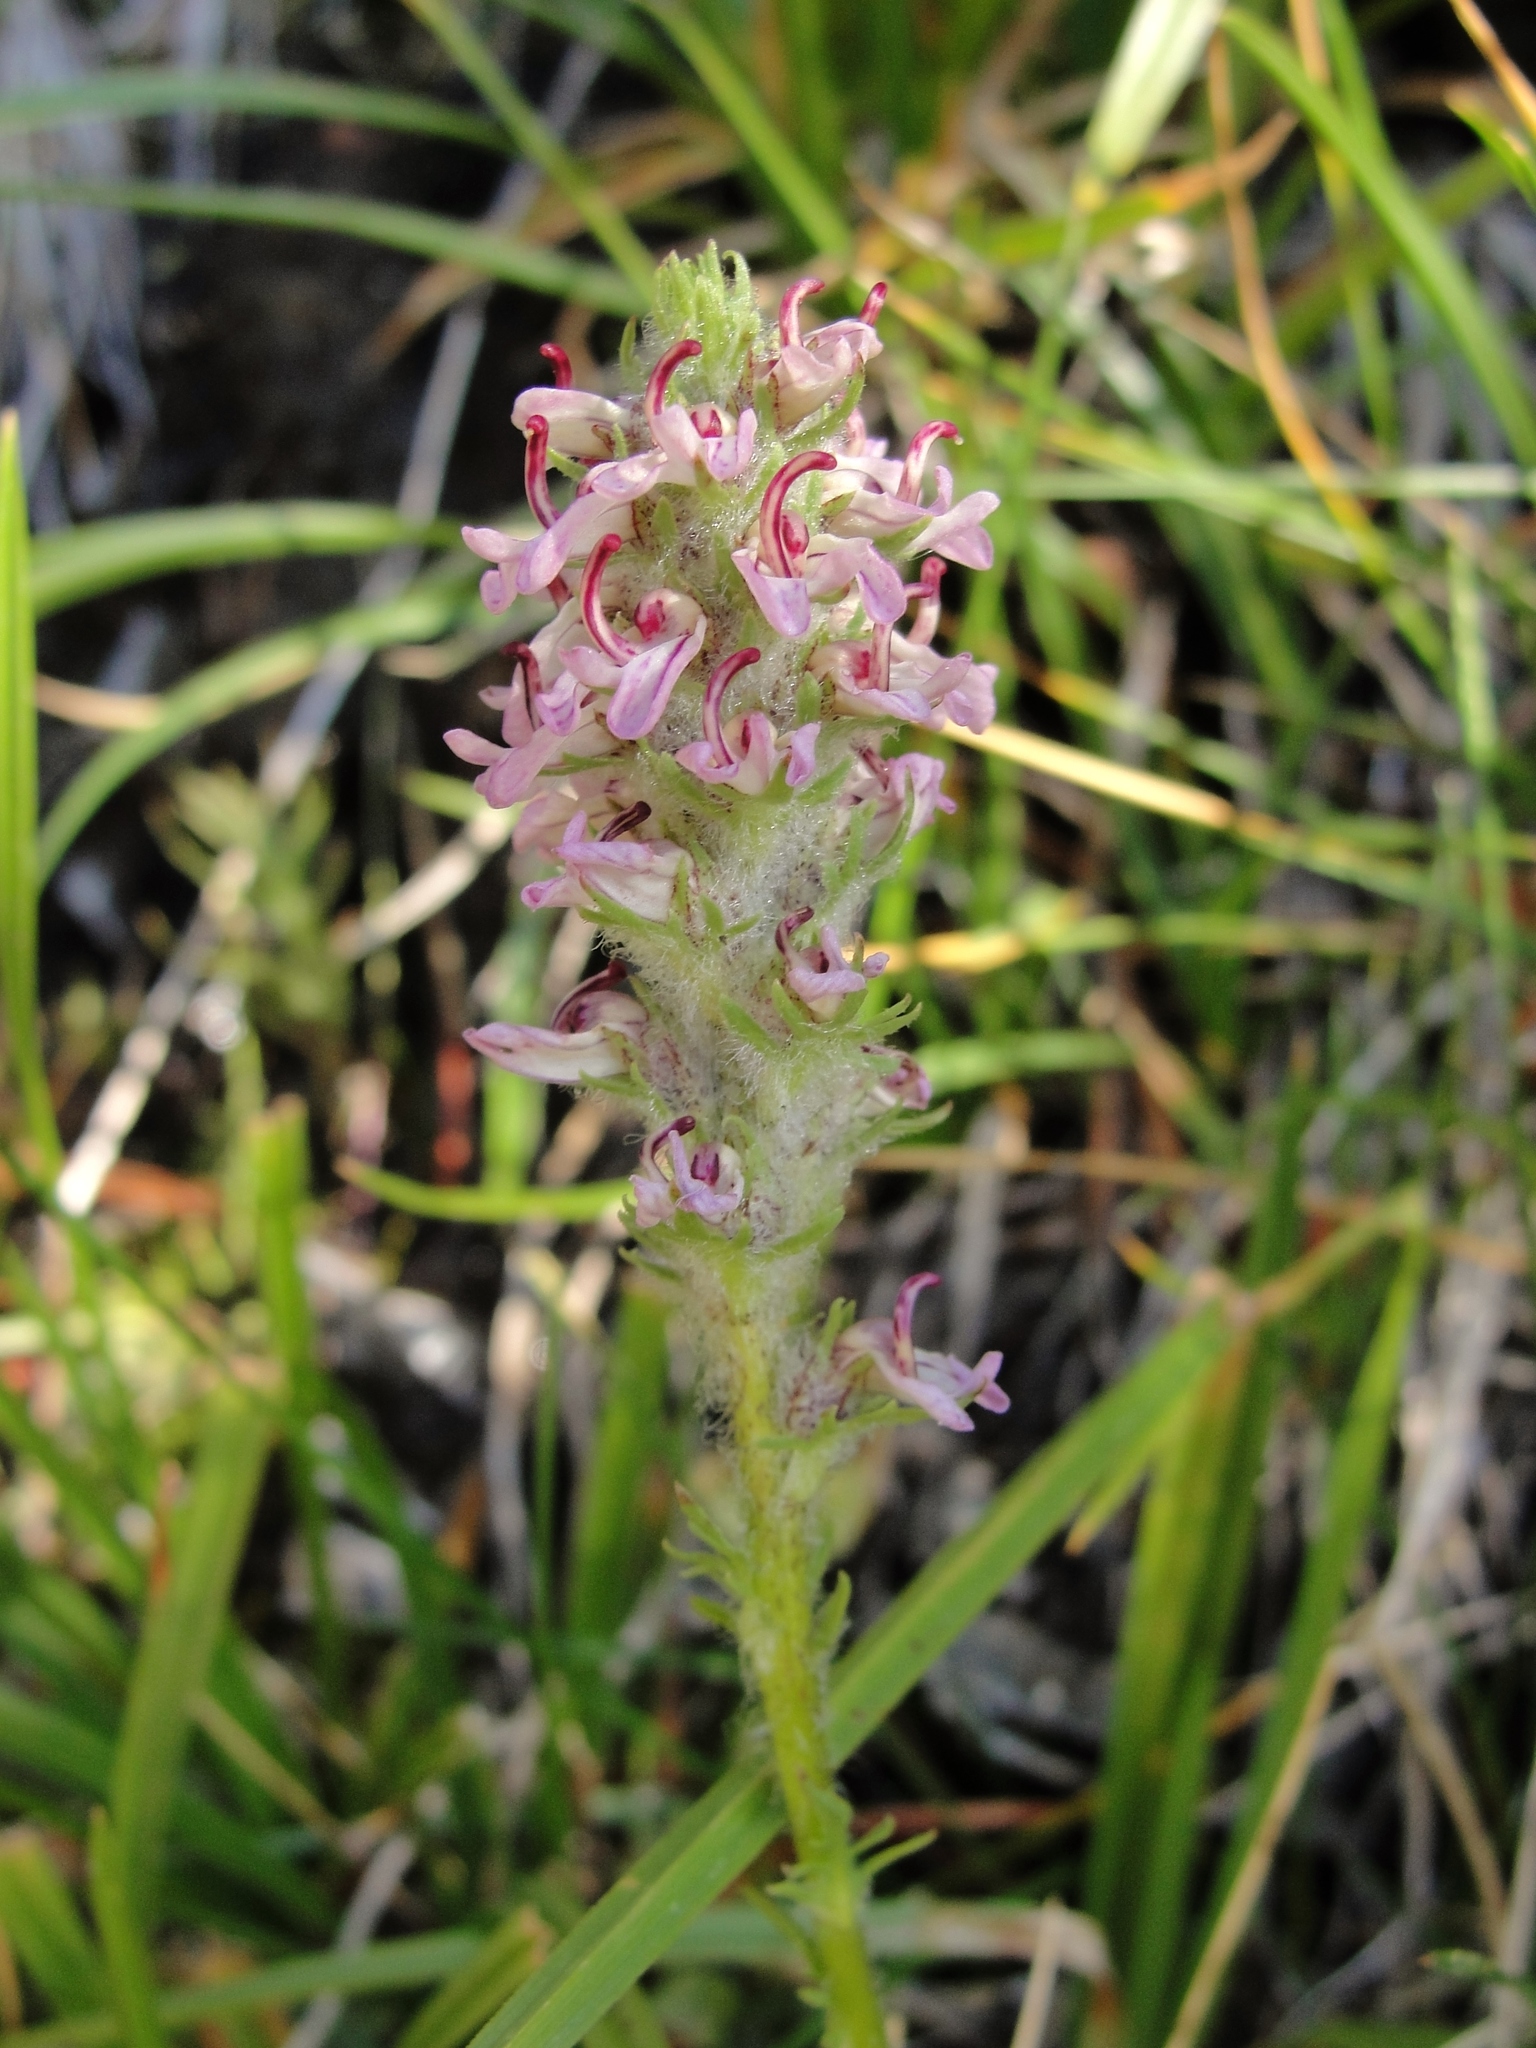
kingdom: Plantae
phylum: Tracheophyta
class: Magnoliopsida
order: Lamiales
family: Orobanchaceae
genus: Pedicularis
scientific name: Pedicularis attollens
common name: Slender pedicularis
